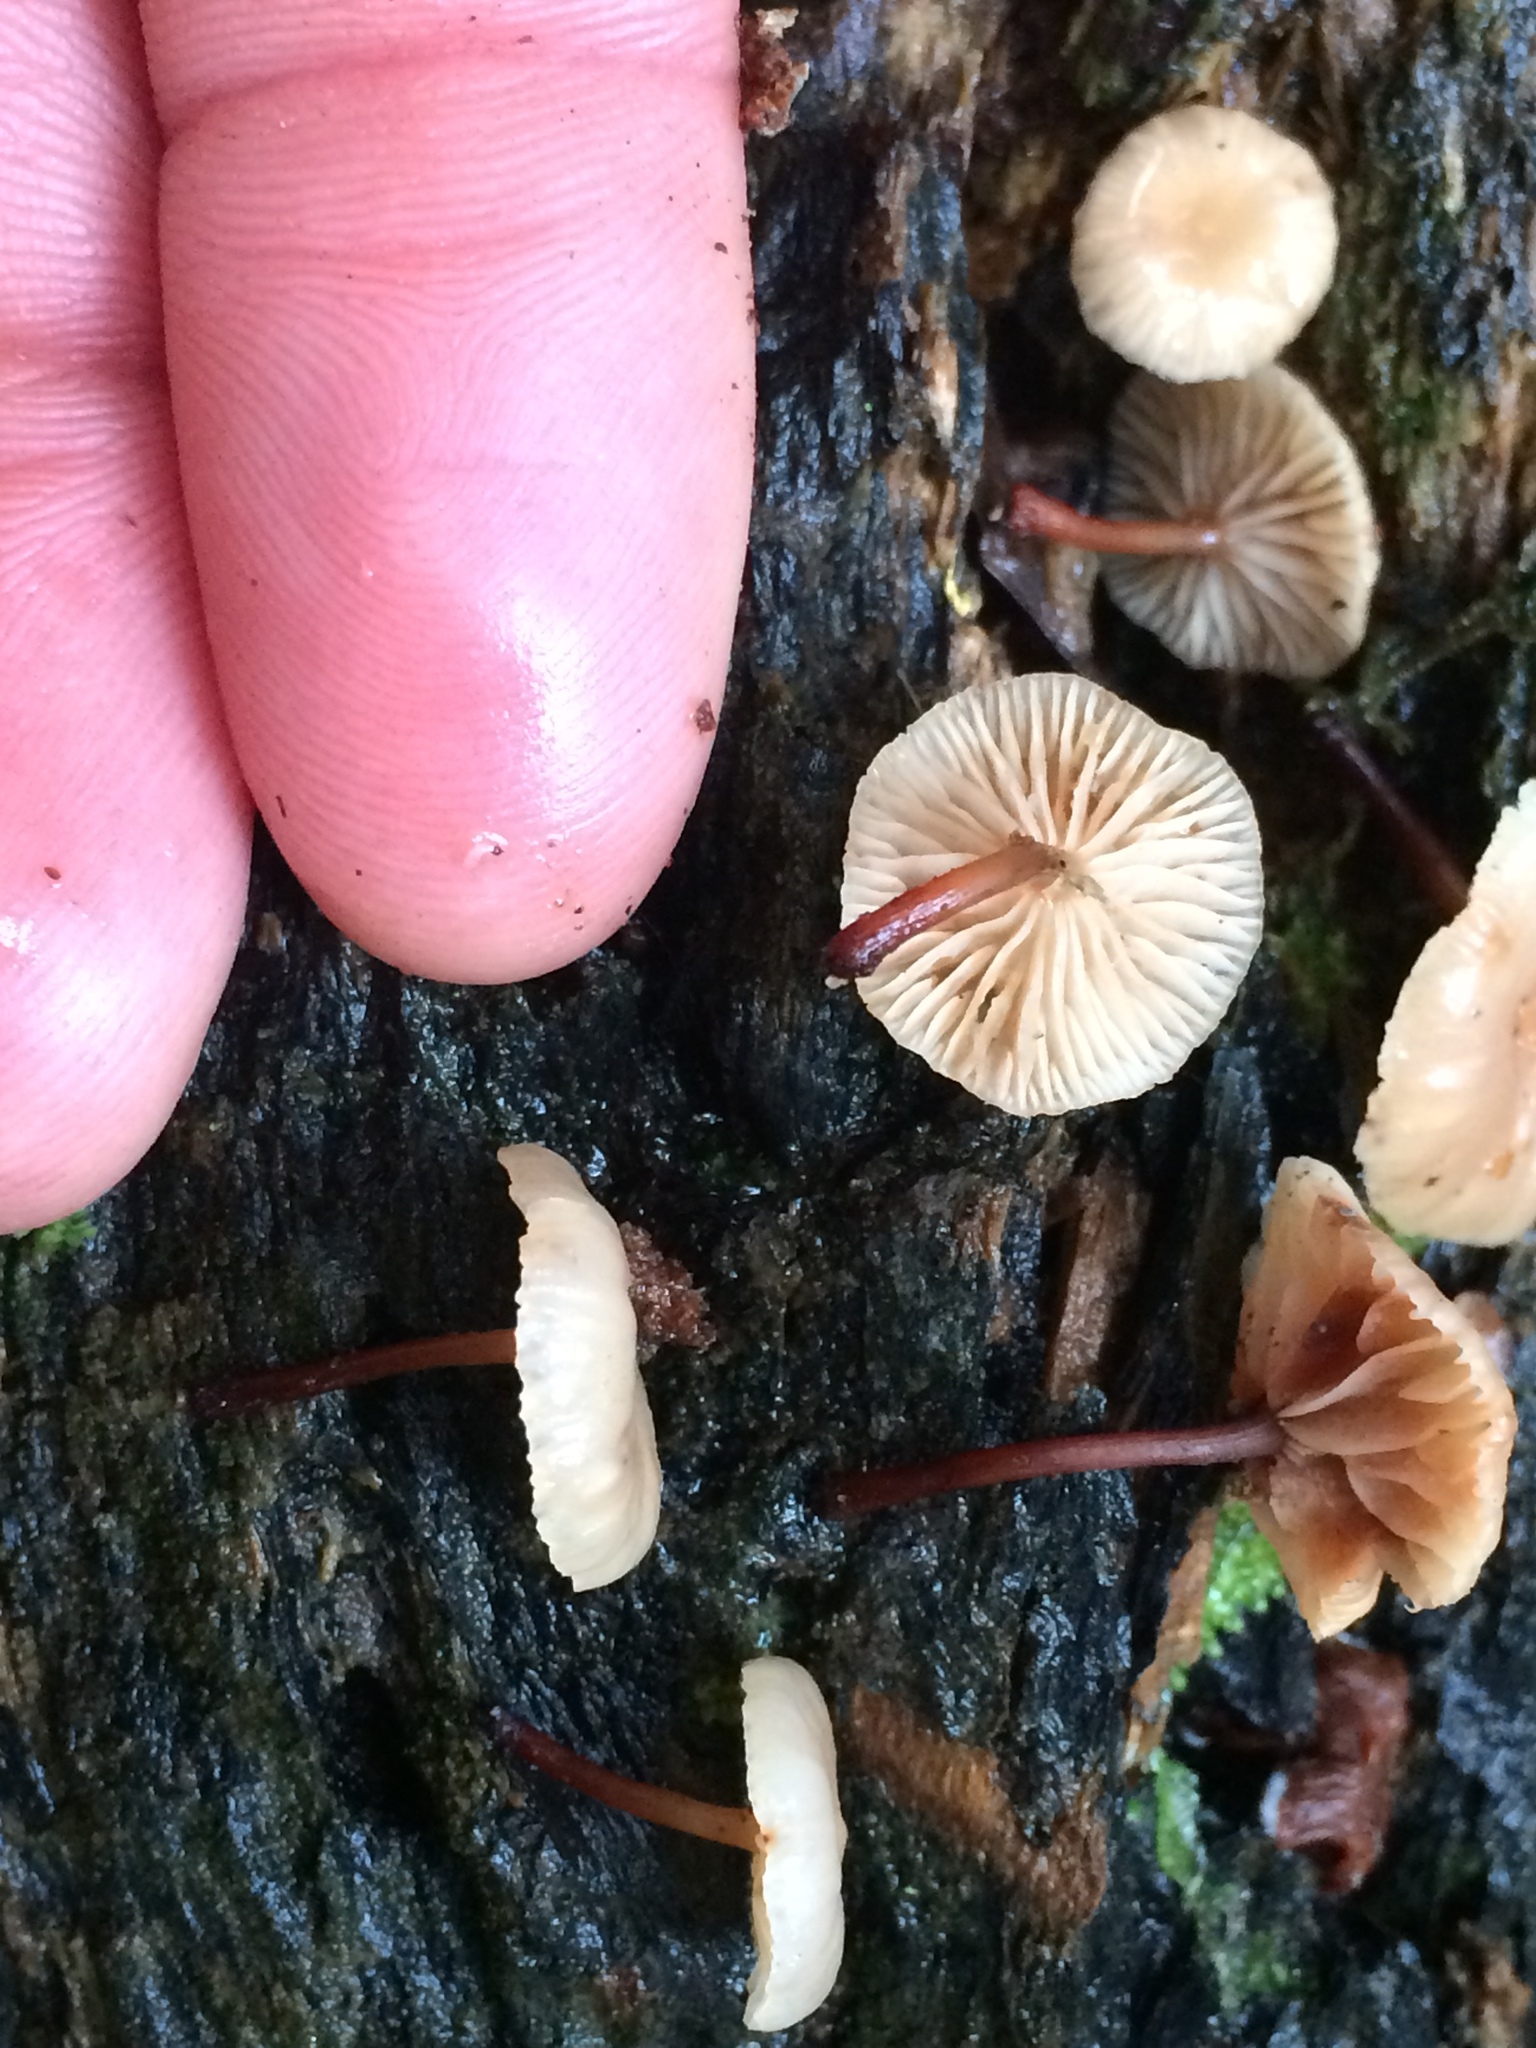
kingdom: Fungi
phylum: Basidiomycota
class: Agaricomycetes
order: Agaricales
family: Omphalotaceae
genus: Mycetinis
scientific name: Mycetinis curraniae
